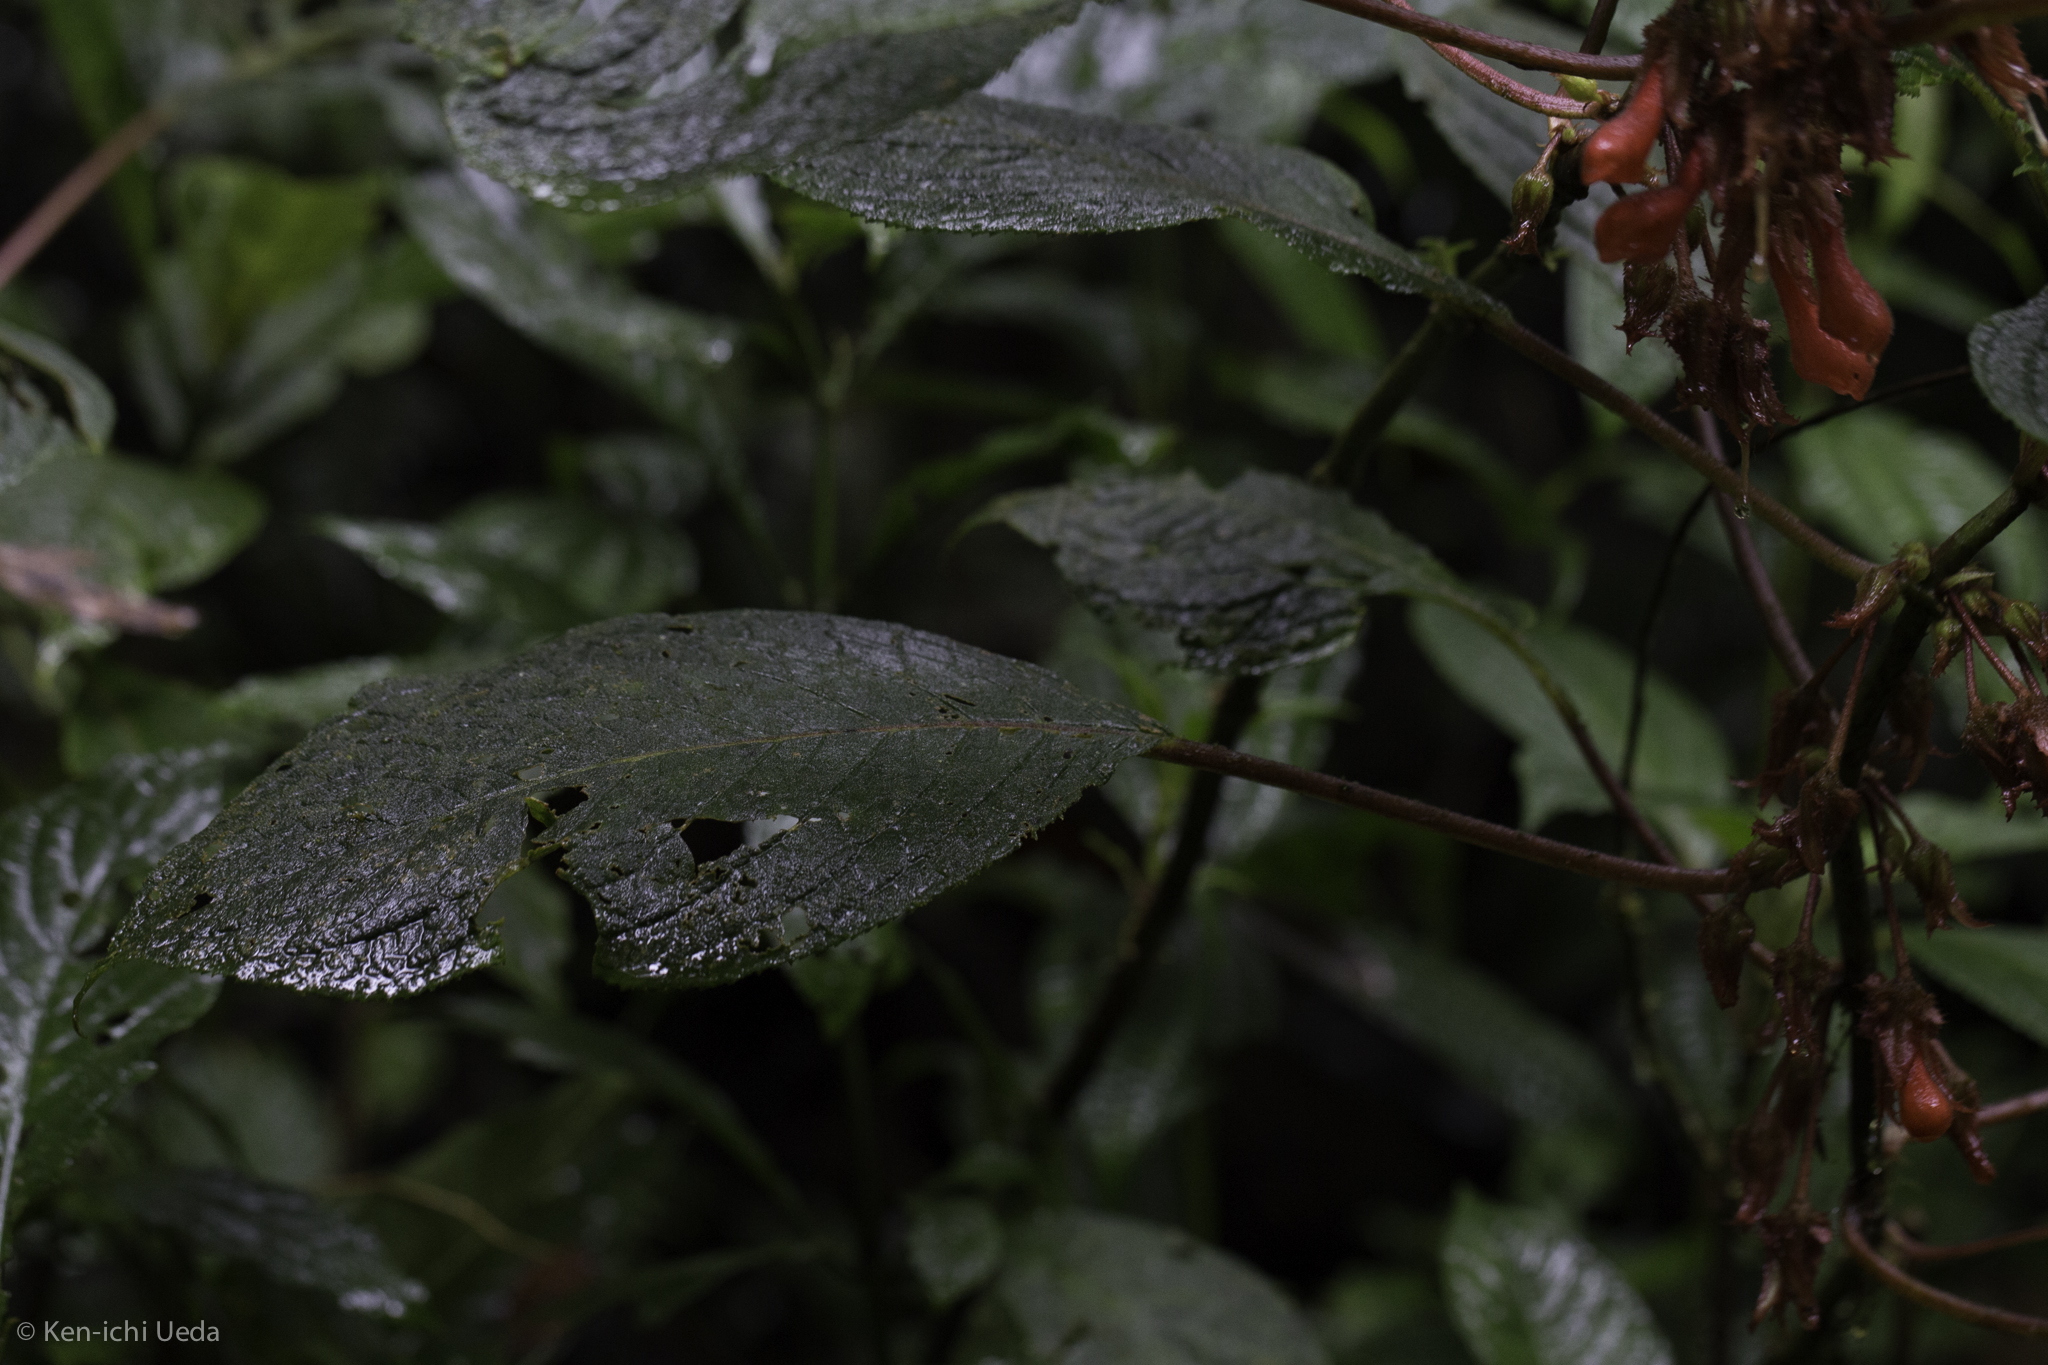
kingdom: Plantae
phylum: Tracheophyta
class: Magnoliopsida
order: Lamiales
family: Gesneriaceae
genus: Glossoloma
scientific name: Glossoloma tetragonum
